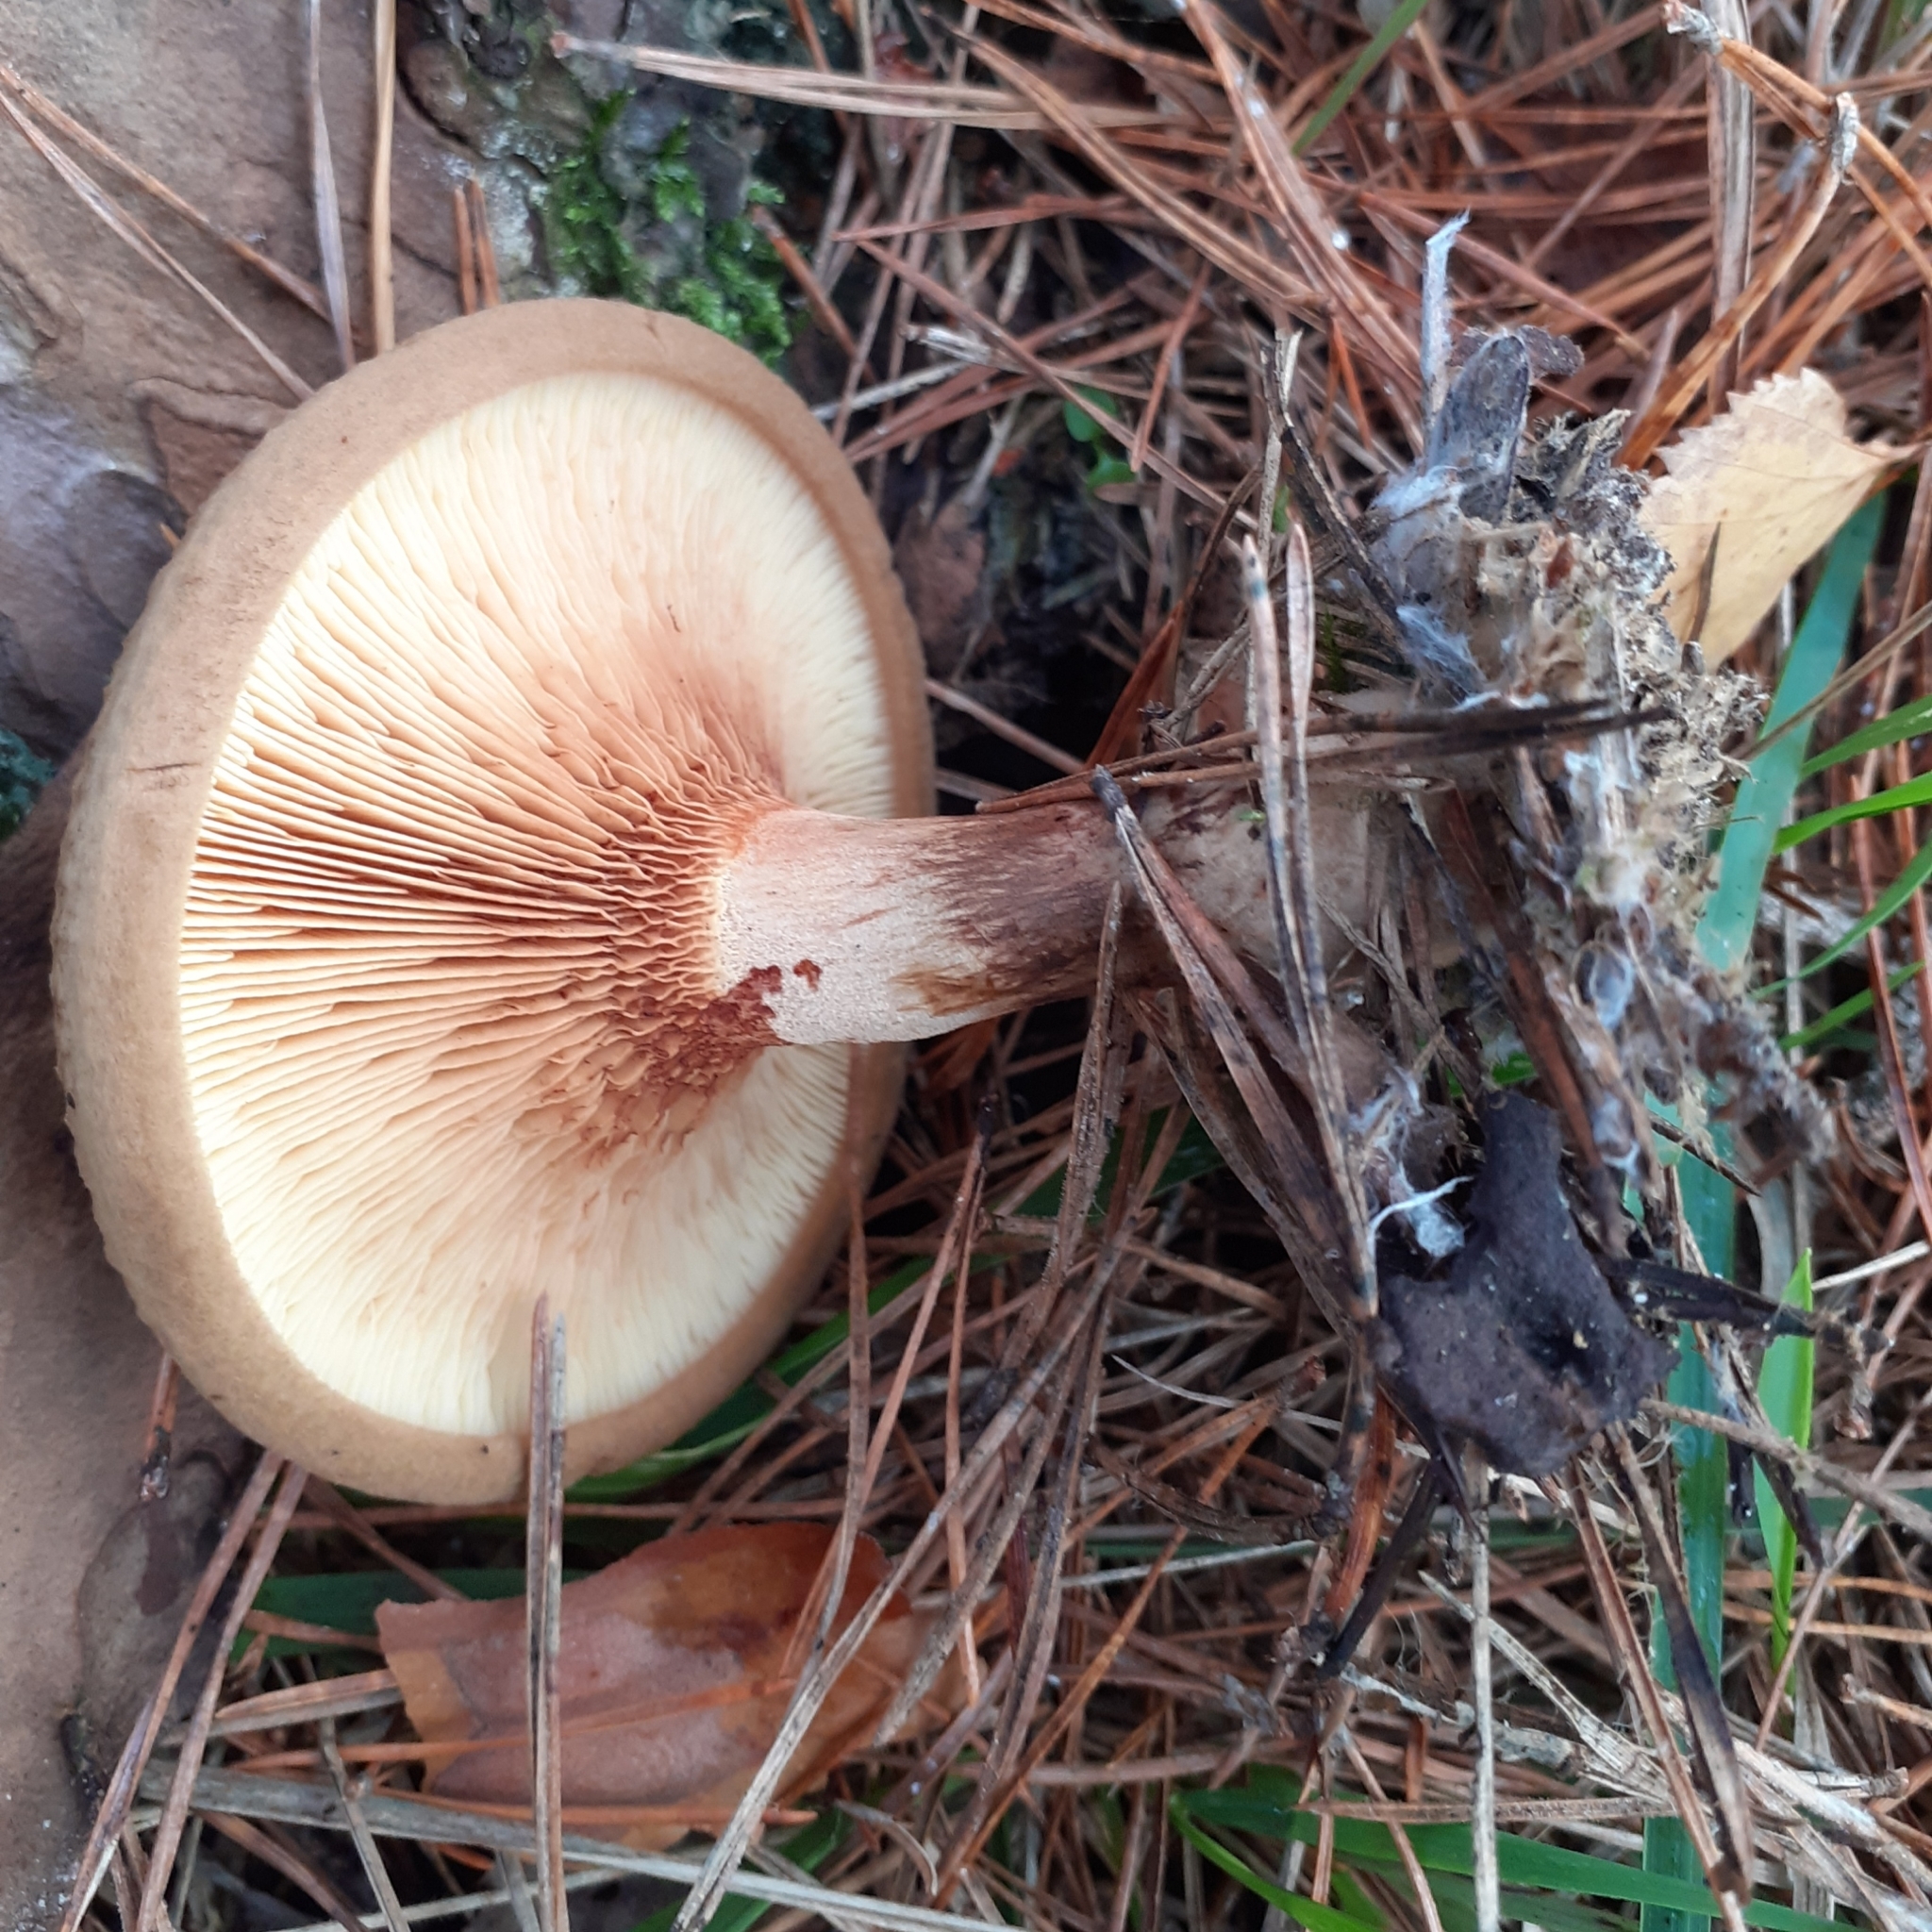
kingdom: Fungi
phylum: Basidiomycota
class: Agaricomycetes
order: Boletales
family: Paxillaceae
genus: Paxillus
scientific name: Paxillus involutus
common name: Brown roll rim
